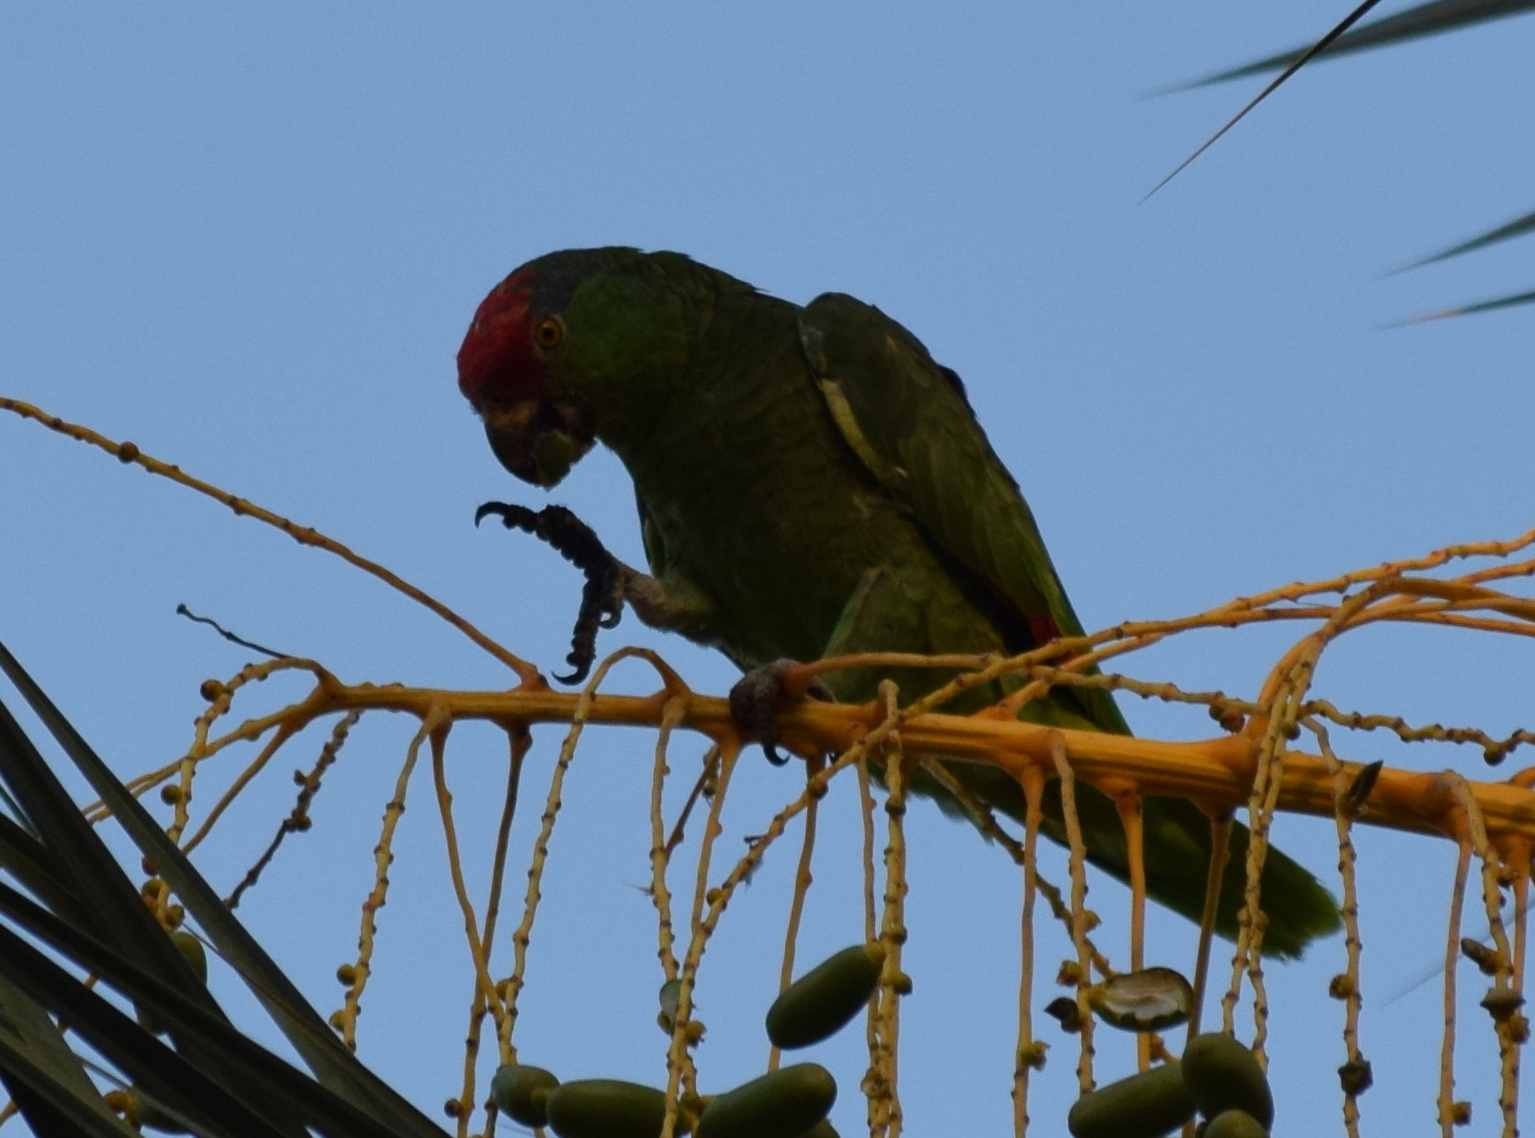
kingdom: Animalia
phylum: Chordata
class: Aves
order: Psittaciformes
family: Psittacidae
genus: Amazona
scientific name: Amazona viridigenalis
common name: Red-crowned amazon
